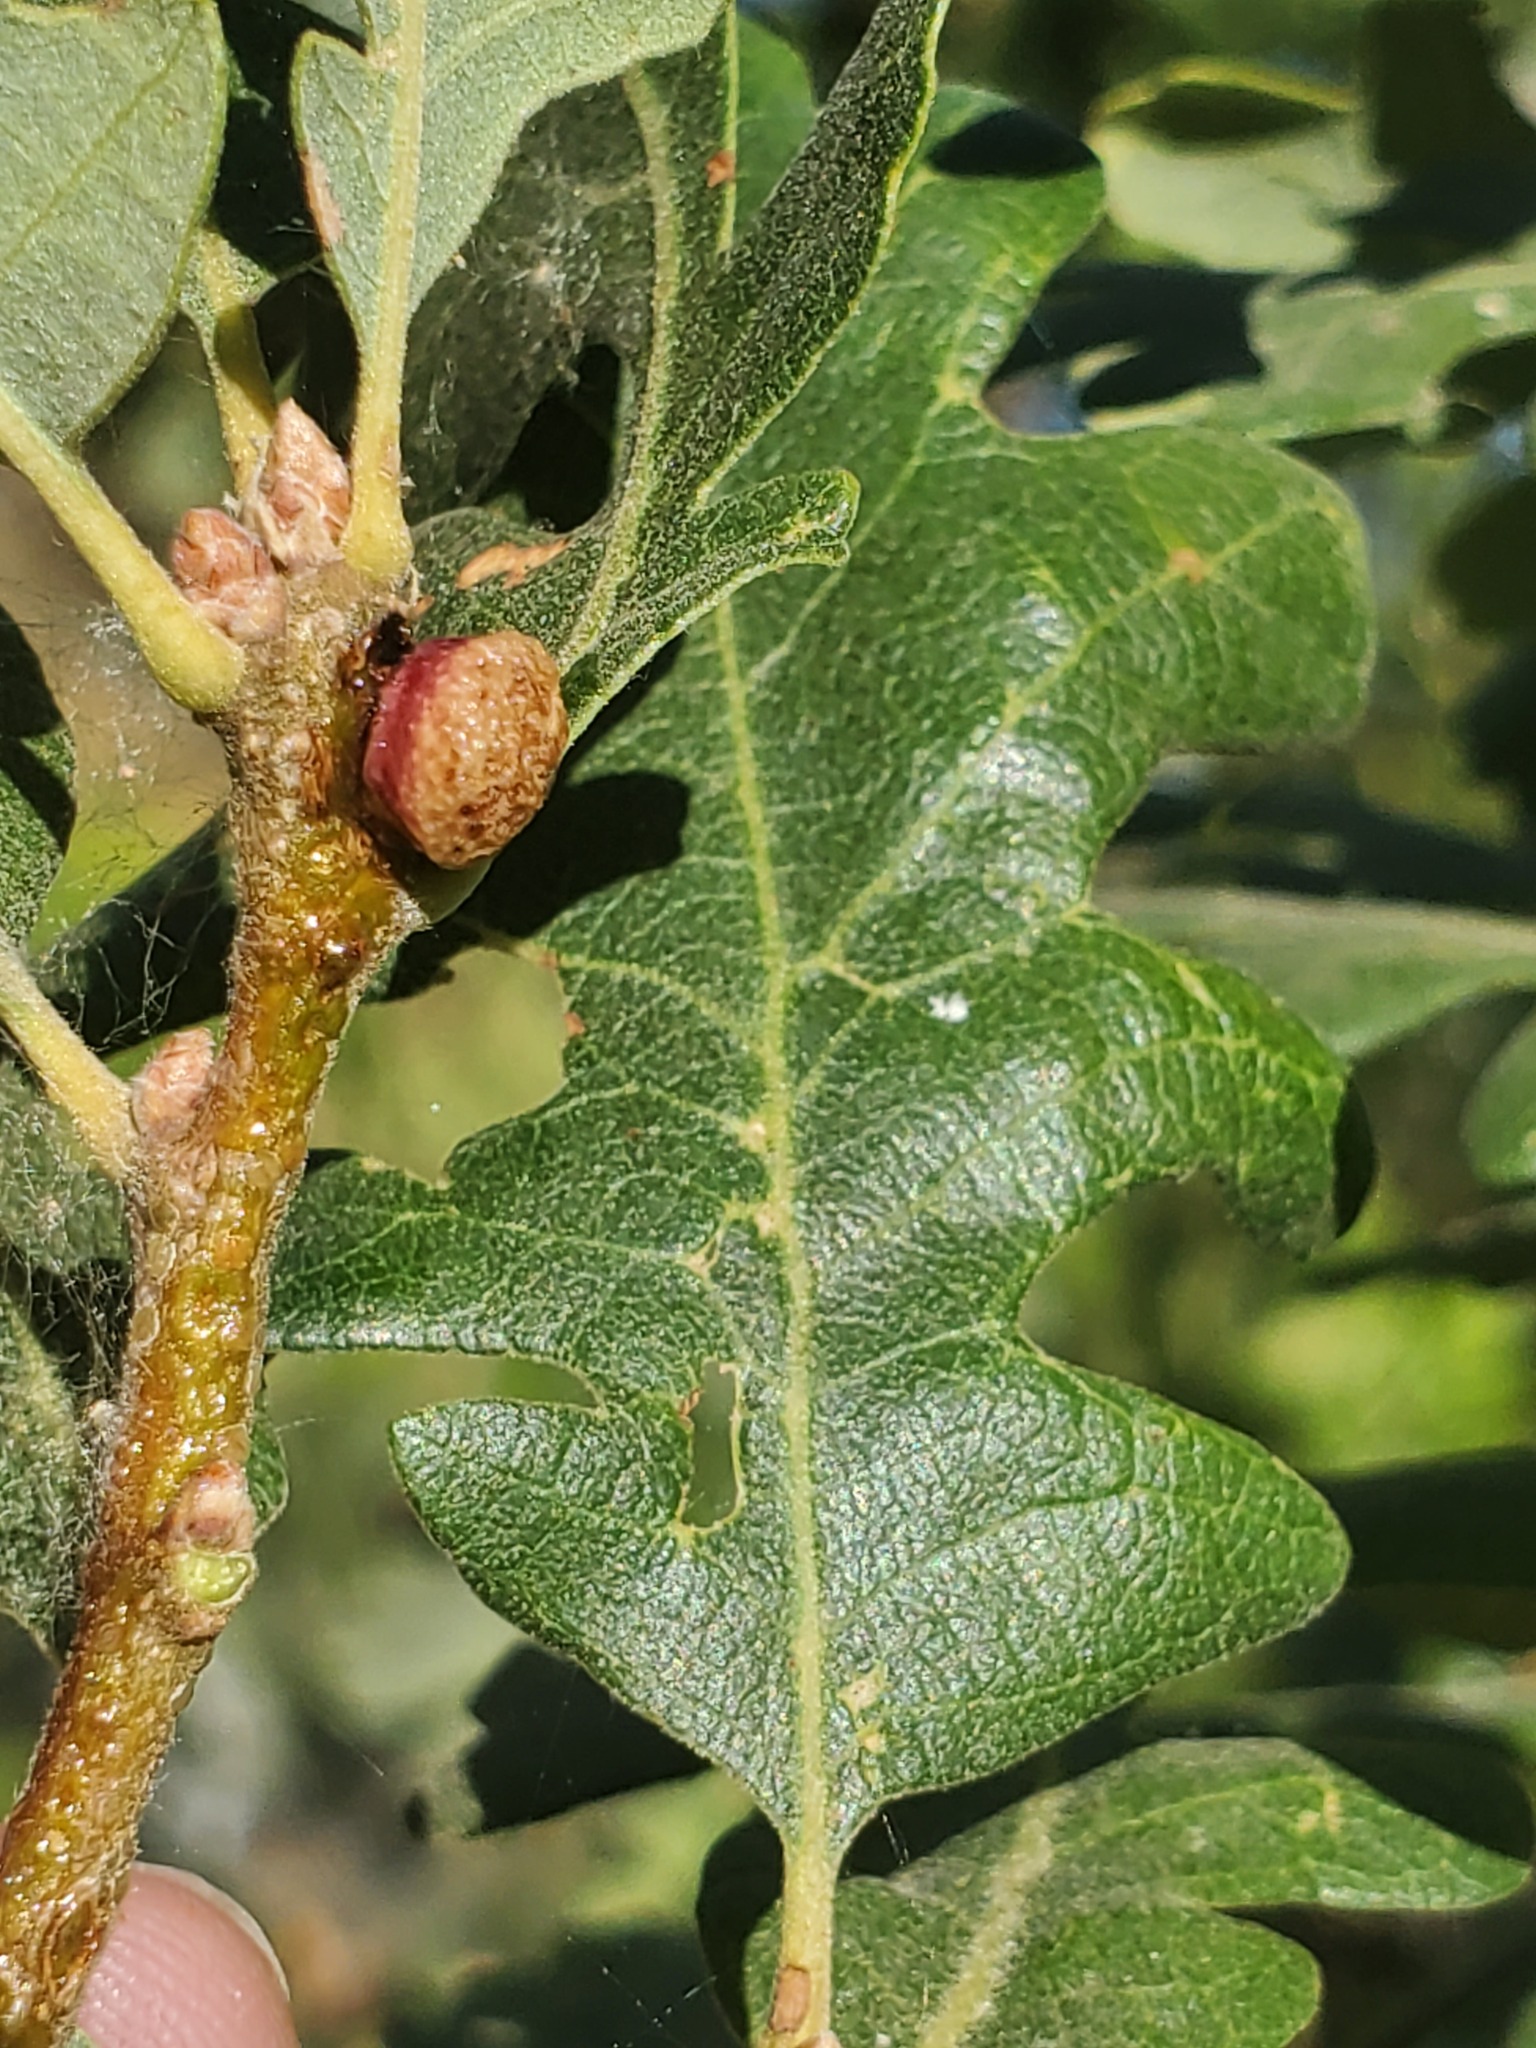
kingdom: Animalia
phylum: Arthropoda
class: Insecta
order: Hymenoptera
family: Cynipidae
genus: Disholcaspis
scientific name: Disholcaspis
